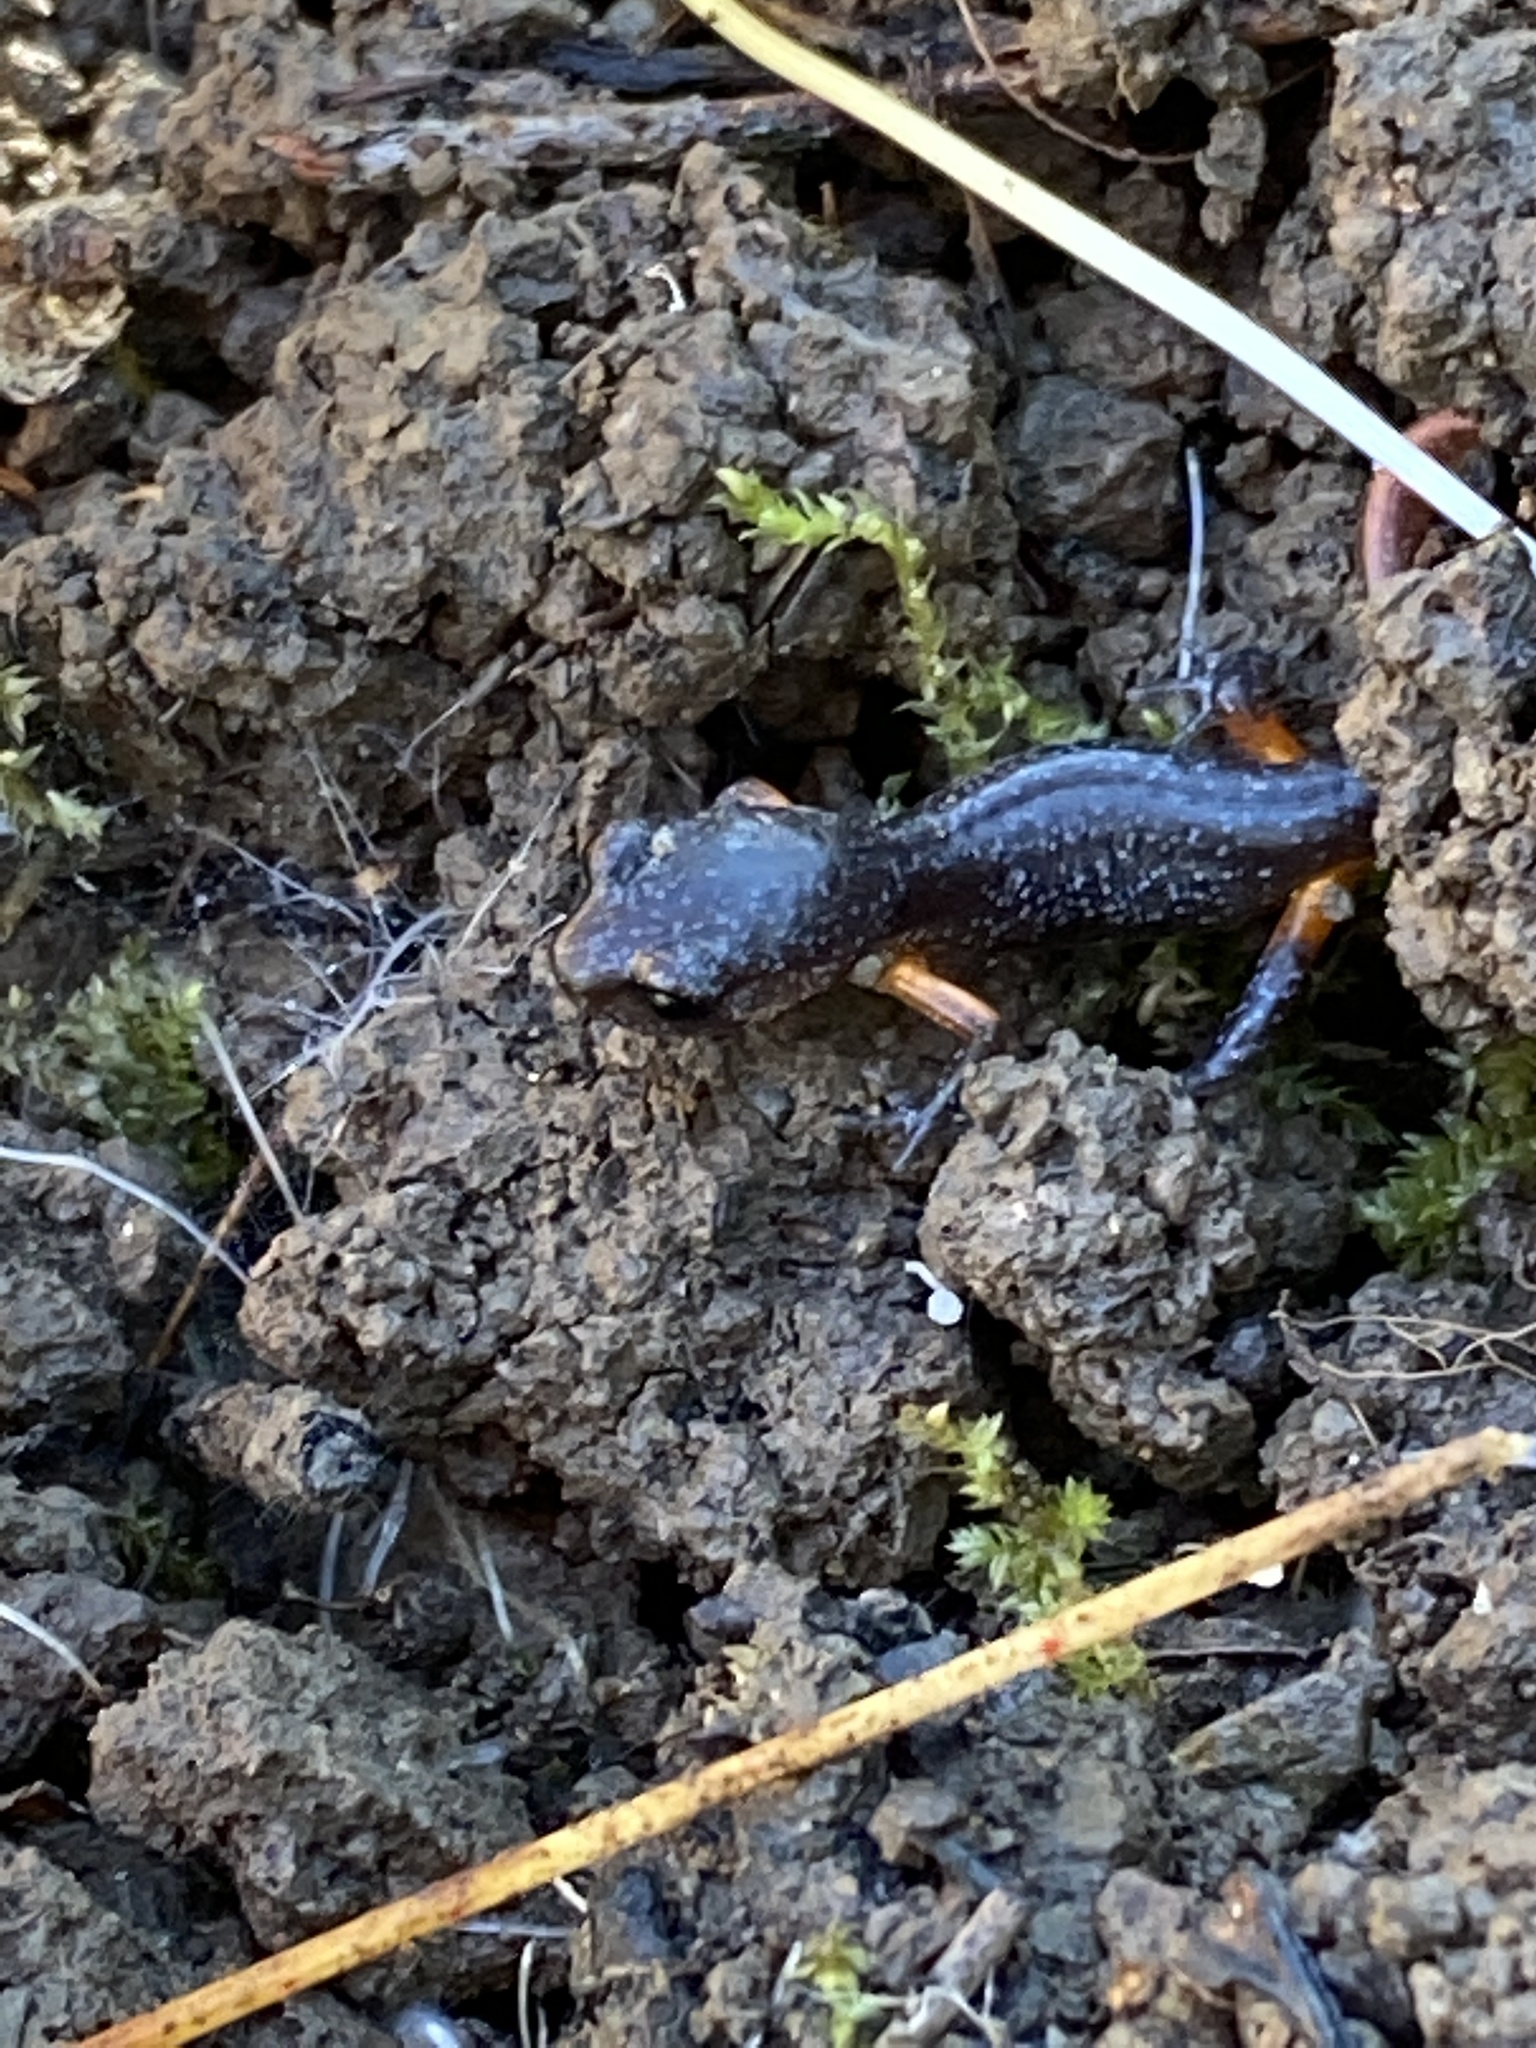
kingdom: Animalia
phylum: Chordata
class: Amphibia
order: Caudata
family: Plethodontidae
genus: Ensatina
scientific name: Ensatina eschscholtzii
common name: Ensatina
